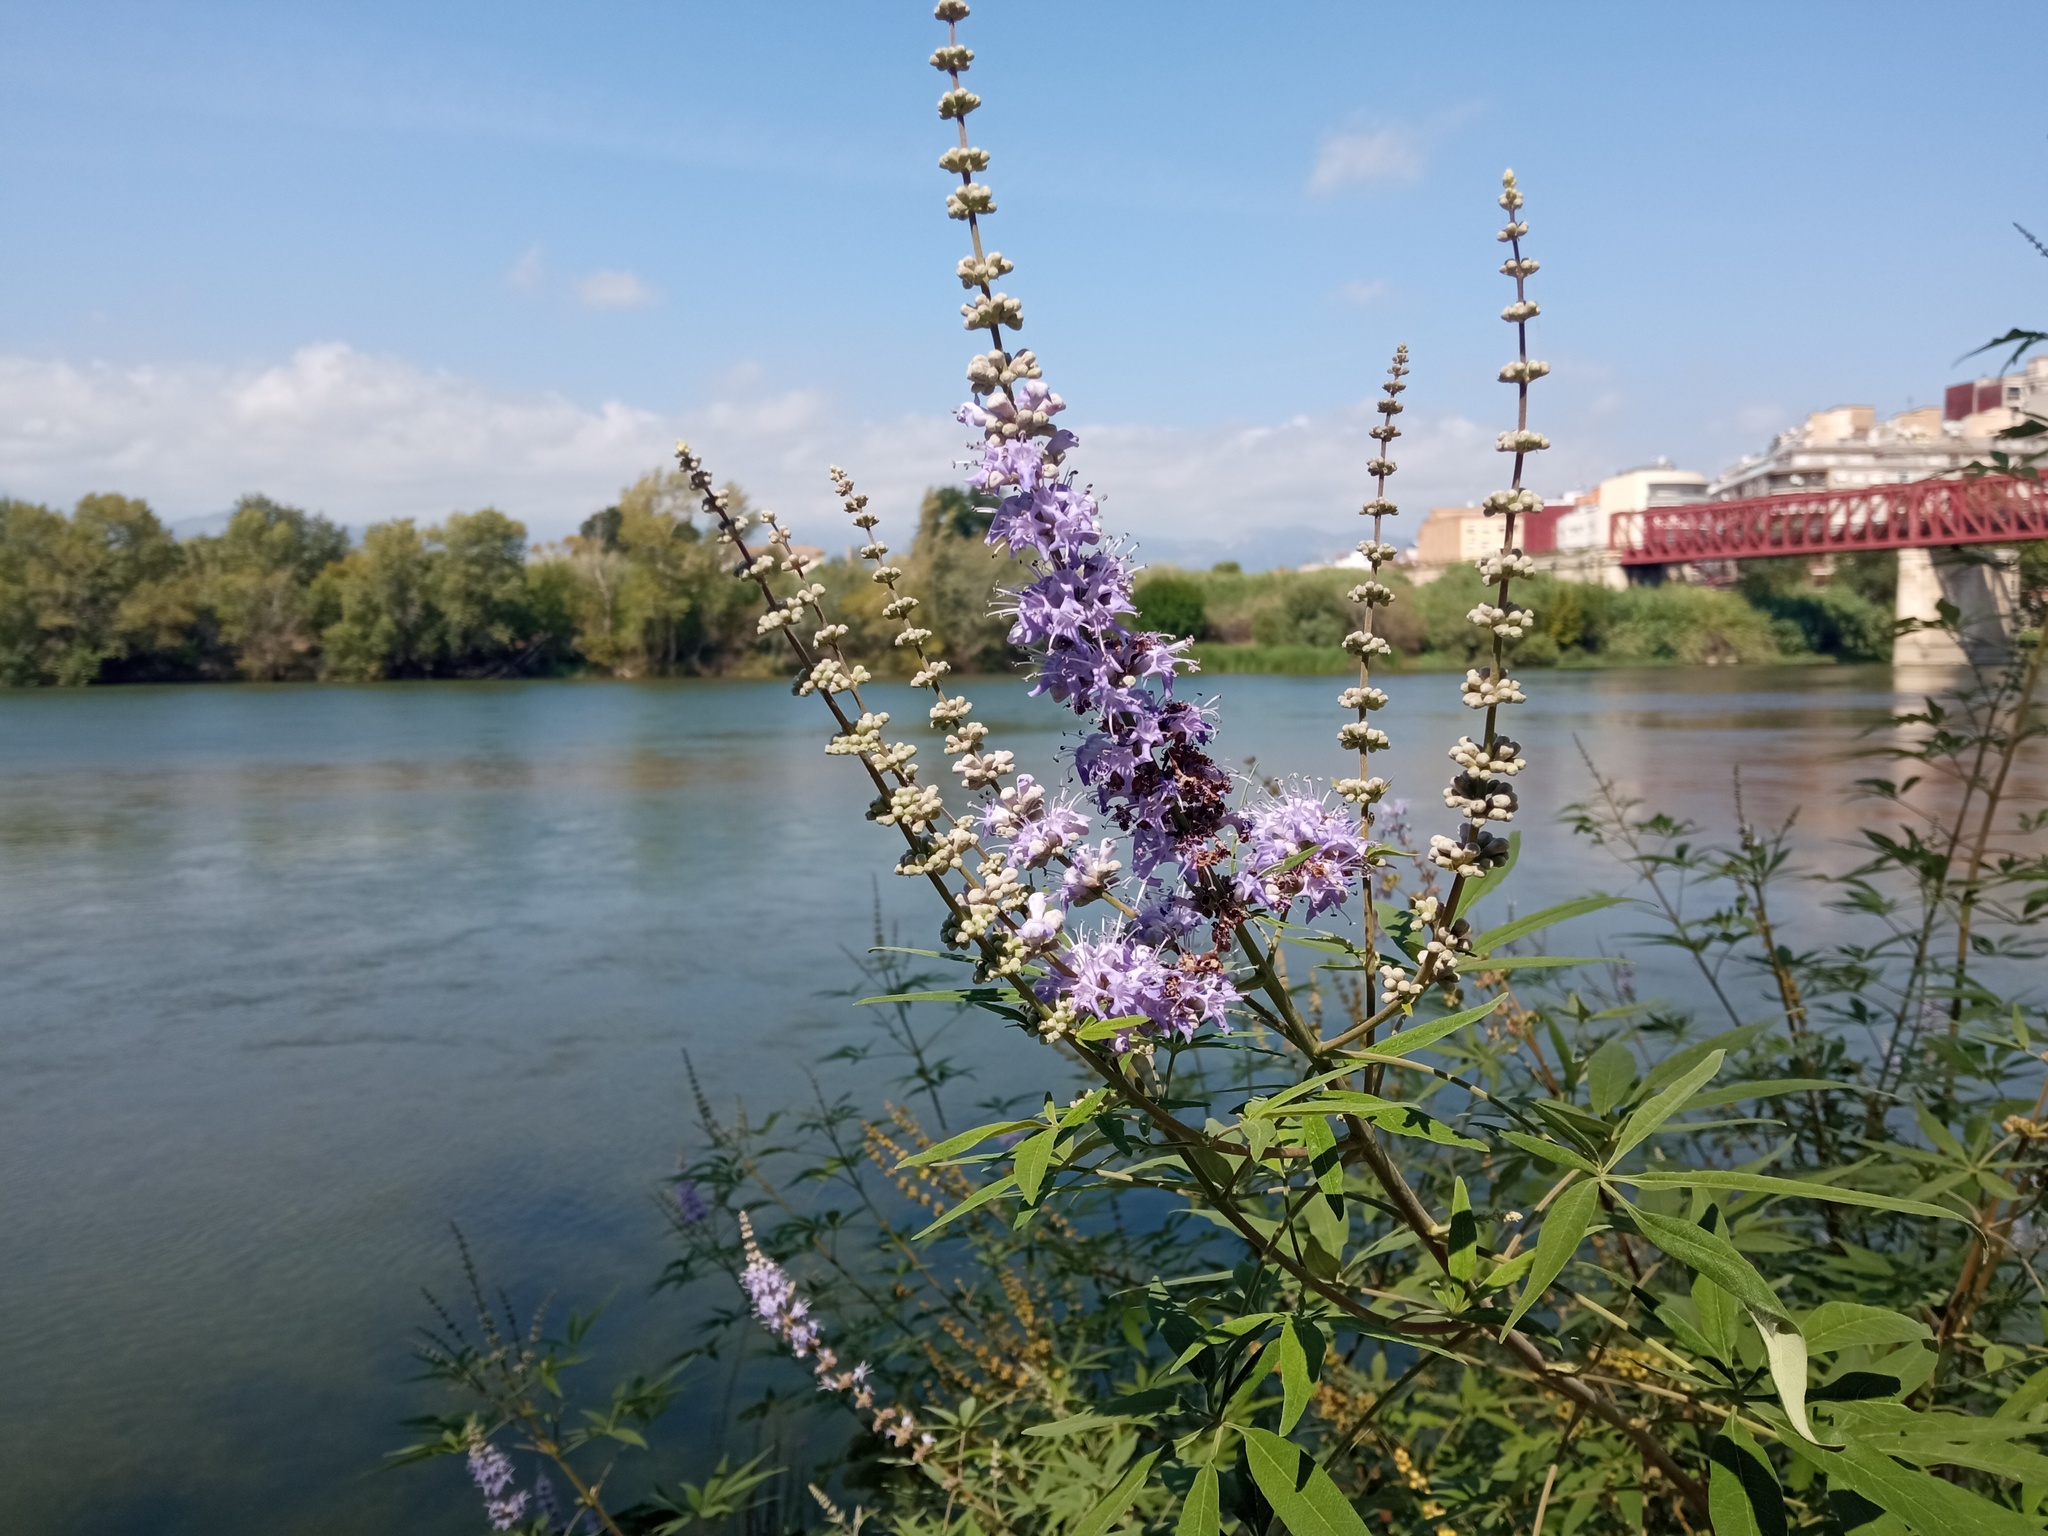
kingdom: Plantae
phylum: Tracheophyta
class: Magnoliopsida
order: Lamiales
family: Lamiaceae
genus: Vitex
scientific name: Vitex agnus-castus
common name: Chasteberry
